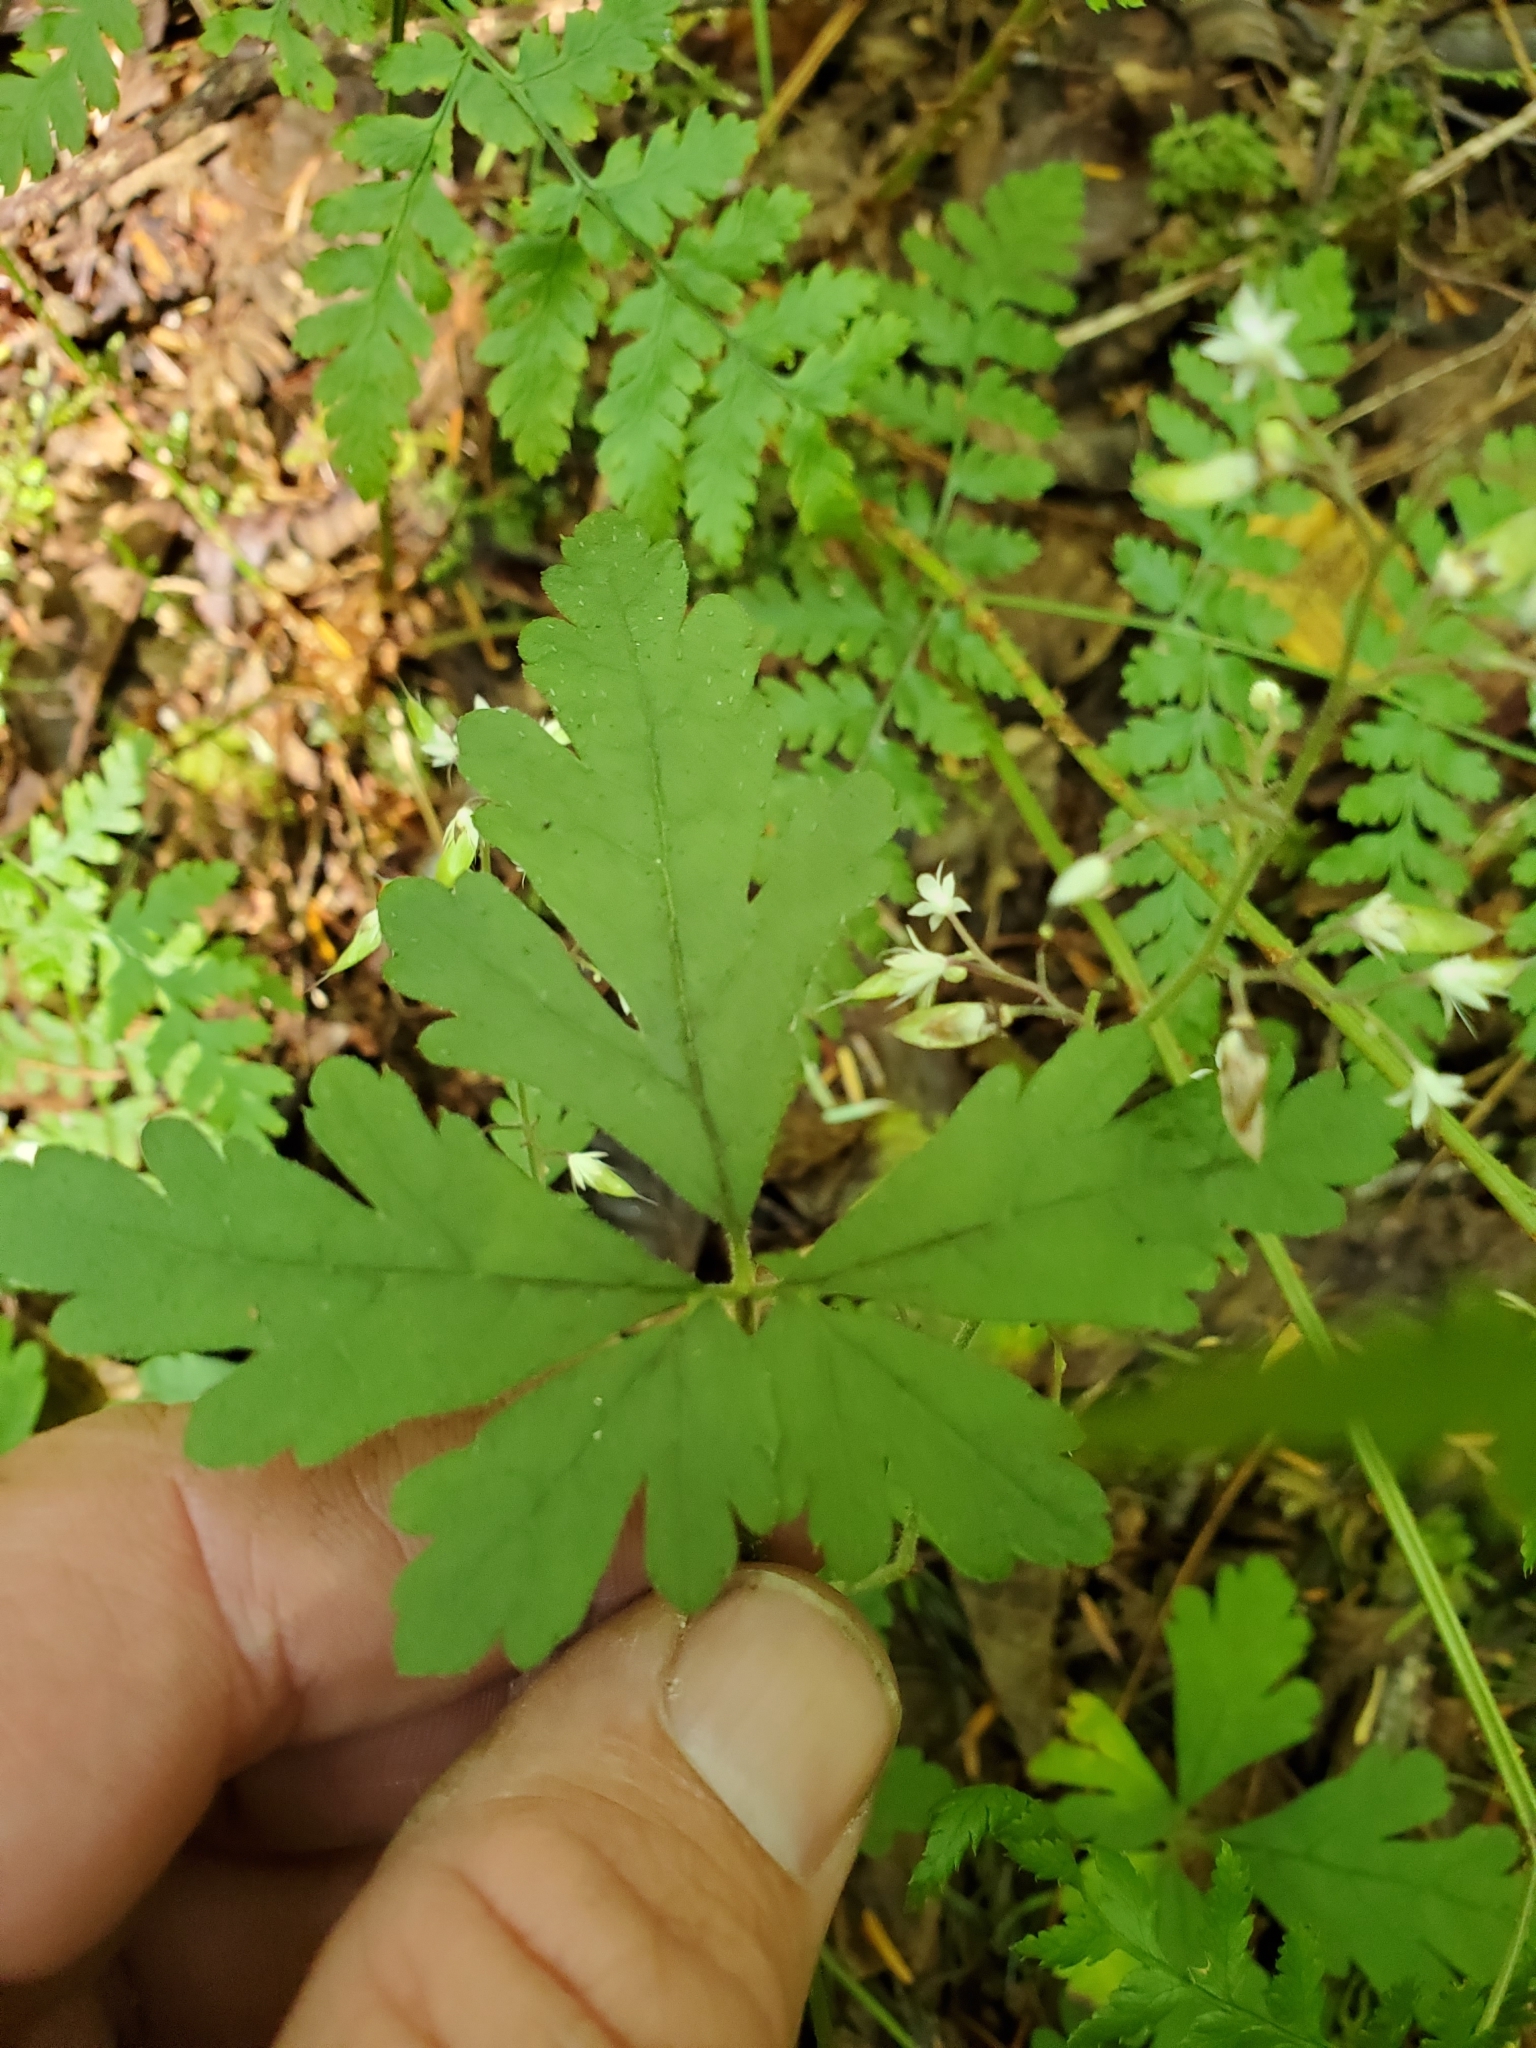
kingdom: Plantae
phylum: Tracheophyta
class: Magnoliopsida
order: Saxifragales
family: Saxifragaceae
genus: Tiarella
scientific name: Tiarella trifoliata
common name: Sugar-scoop
